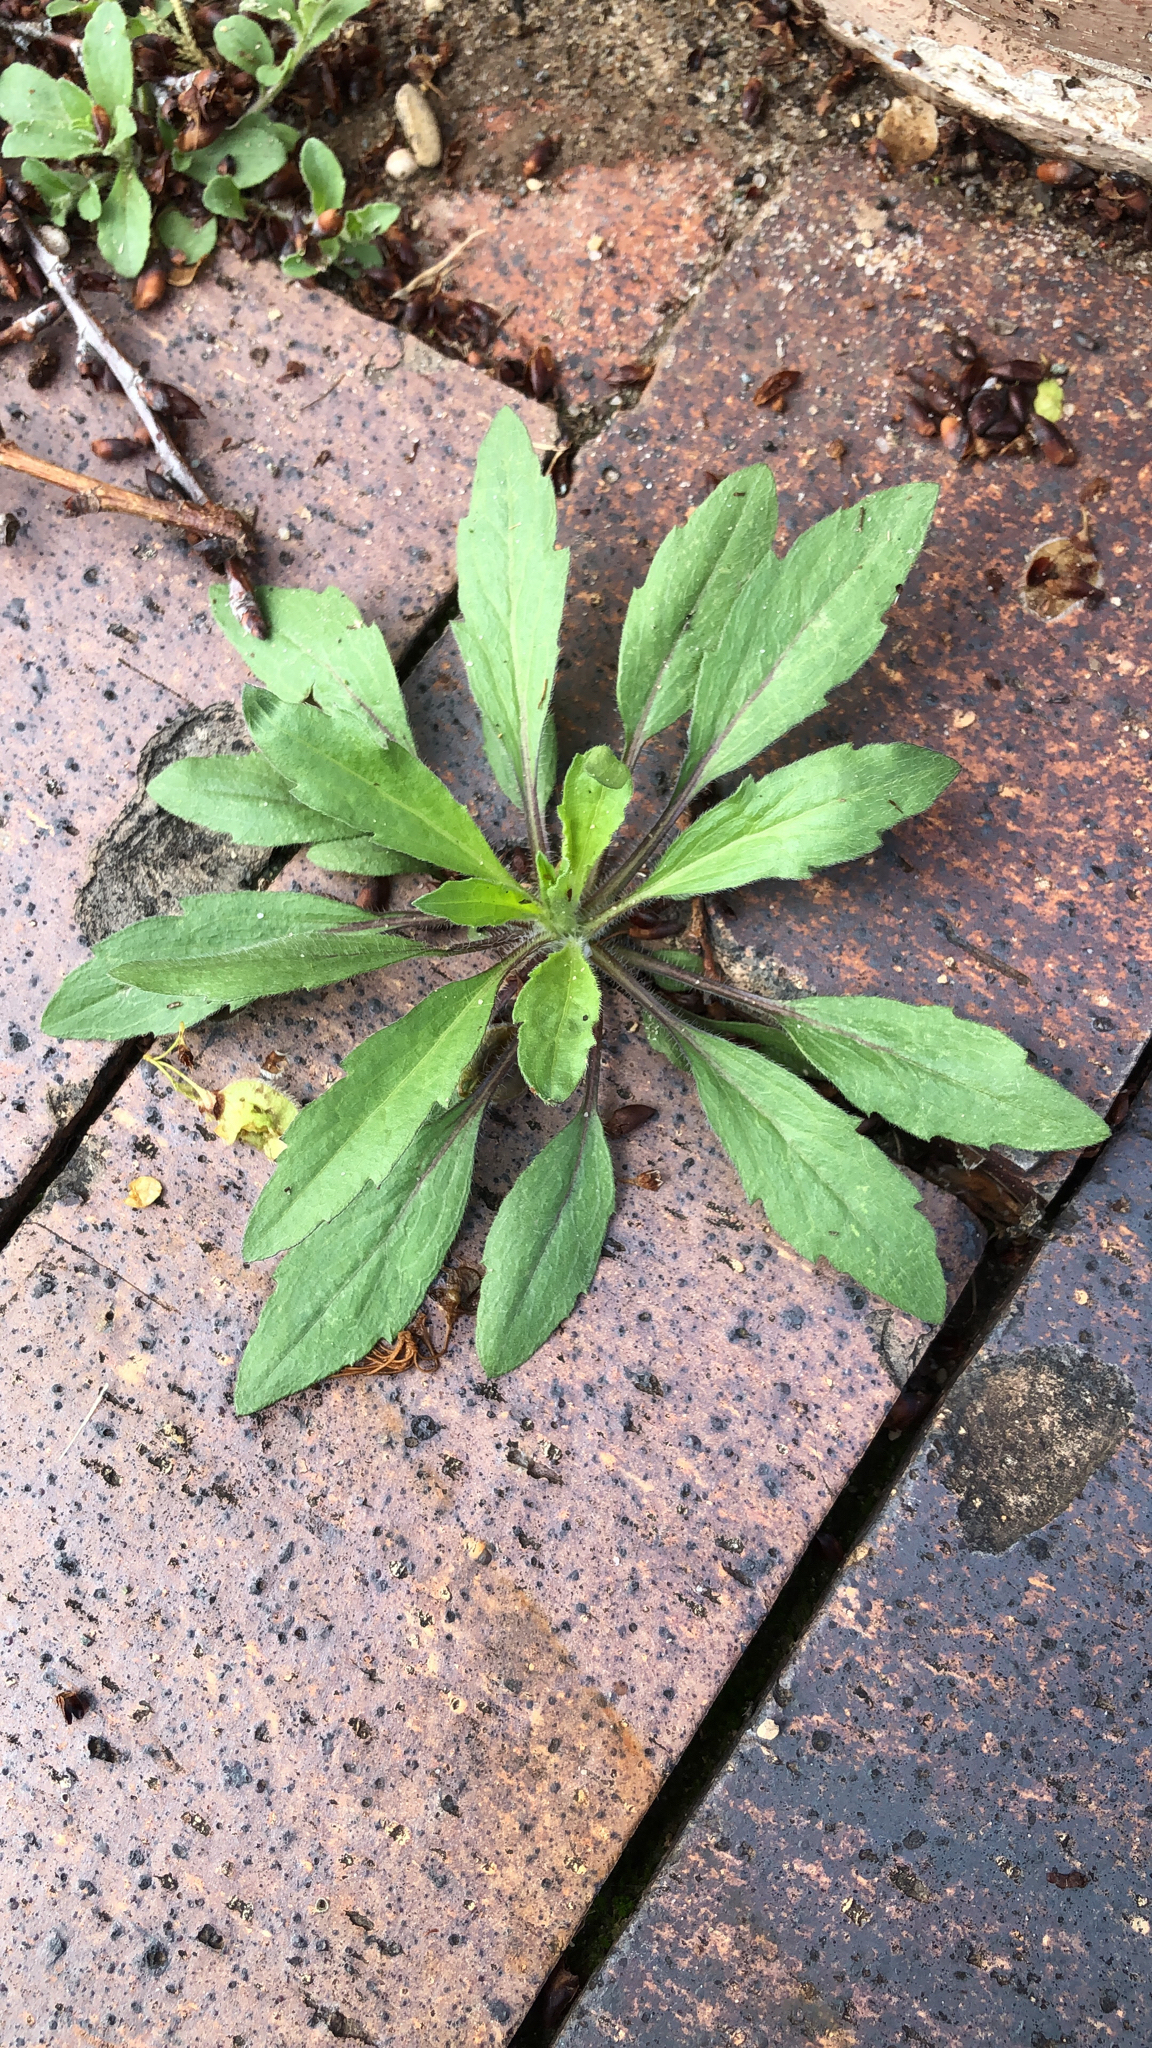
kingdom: Plantae
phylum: Tracheophyta
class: Magnoliopsida
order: Asterales
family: Asteraceae
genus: Erigeron
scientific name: Erigeron canadensis
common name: Canadian fleabane
